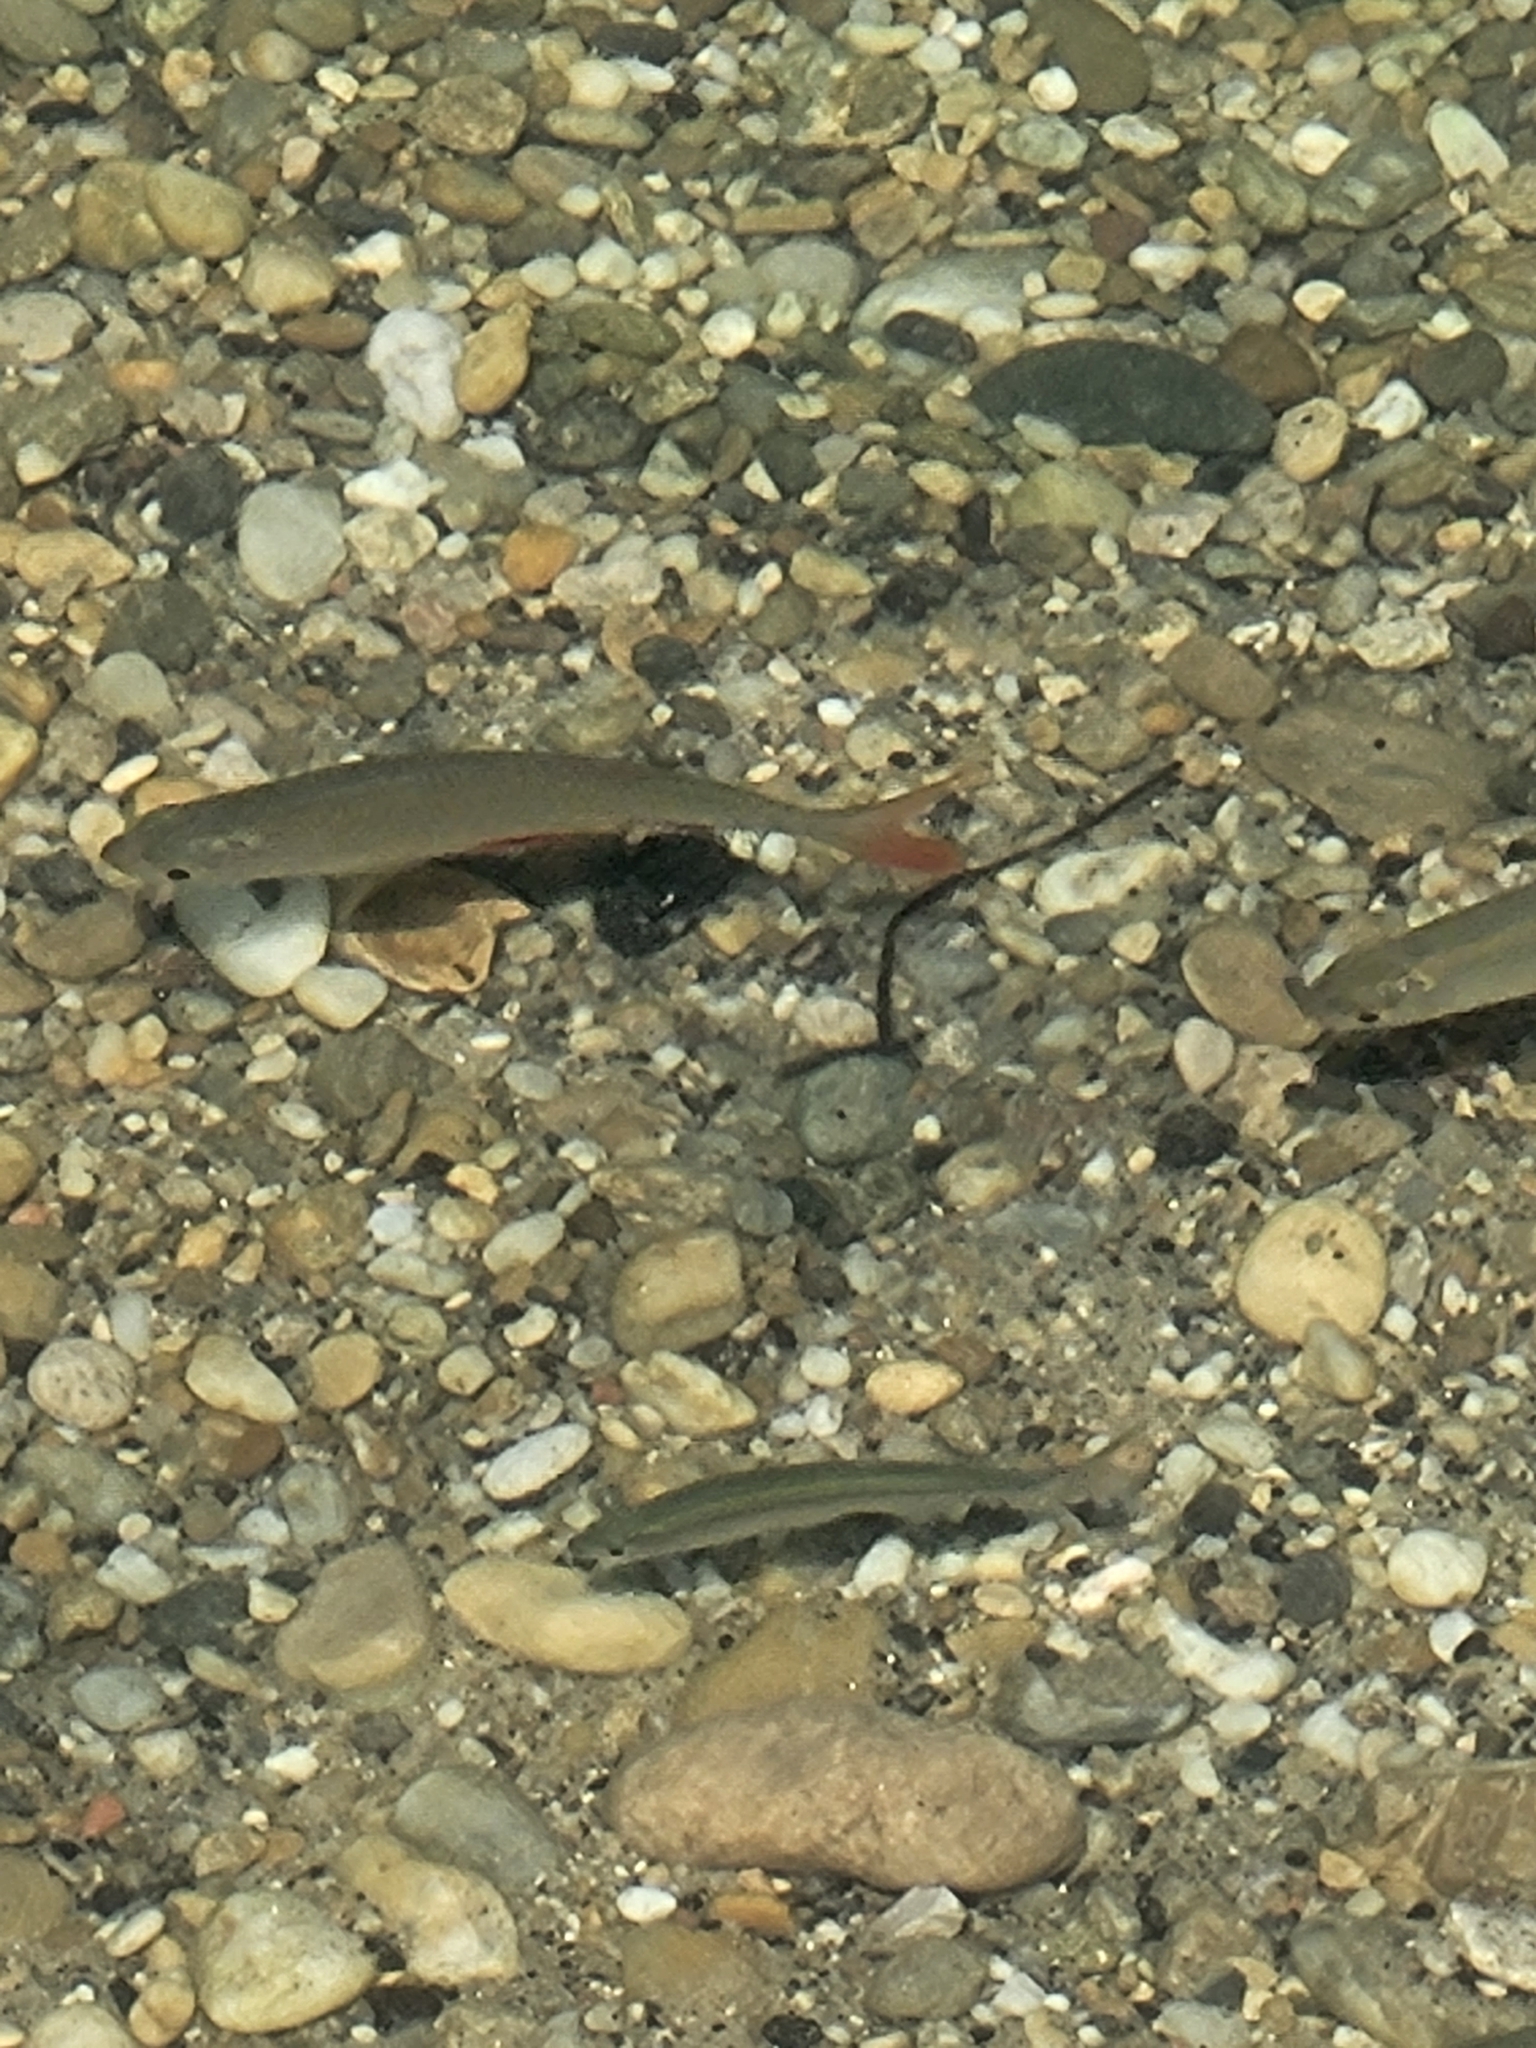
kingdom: Animalia
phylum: Chordata
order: Cypriniformes
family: Cyprinidae
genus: Scardinius
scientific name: Scardinius erythrophthalmus
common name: Rudd
